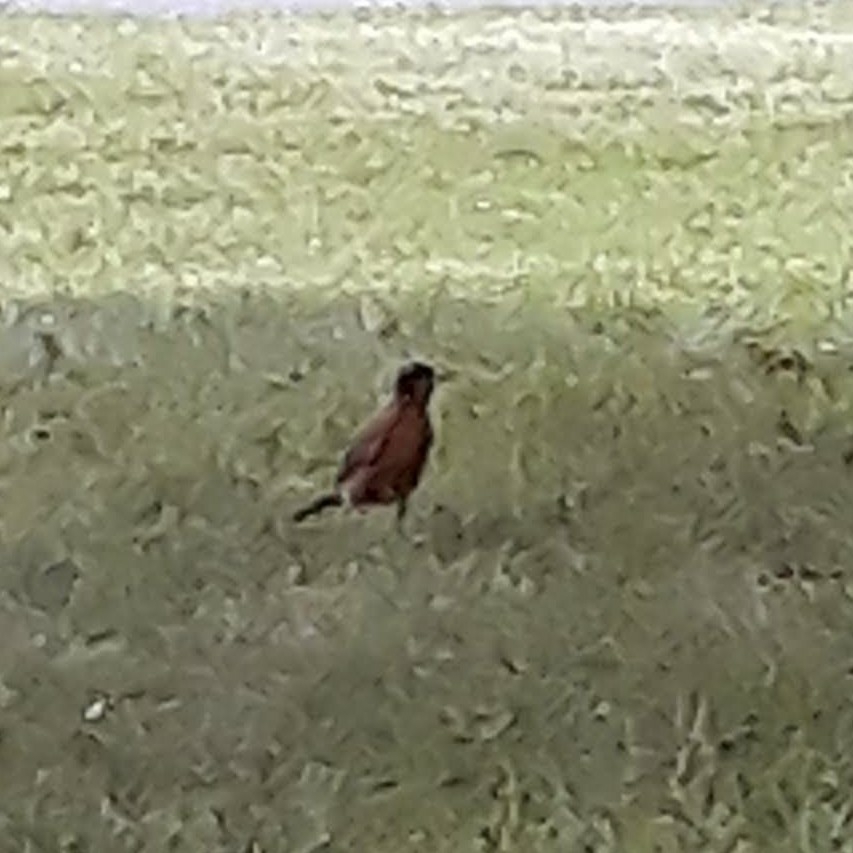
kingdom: Animalia
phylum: Chordata
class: Aves
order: Passeriformes
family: Turdidae
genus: Turdus
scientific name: Turdus migratorius
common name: American robin
